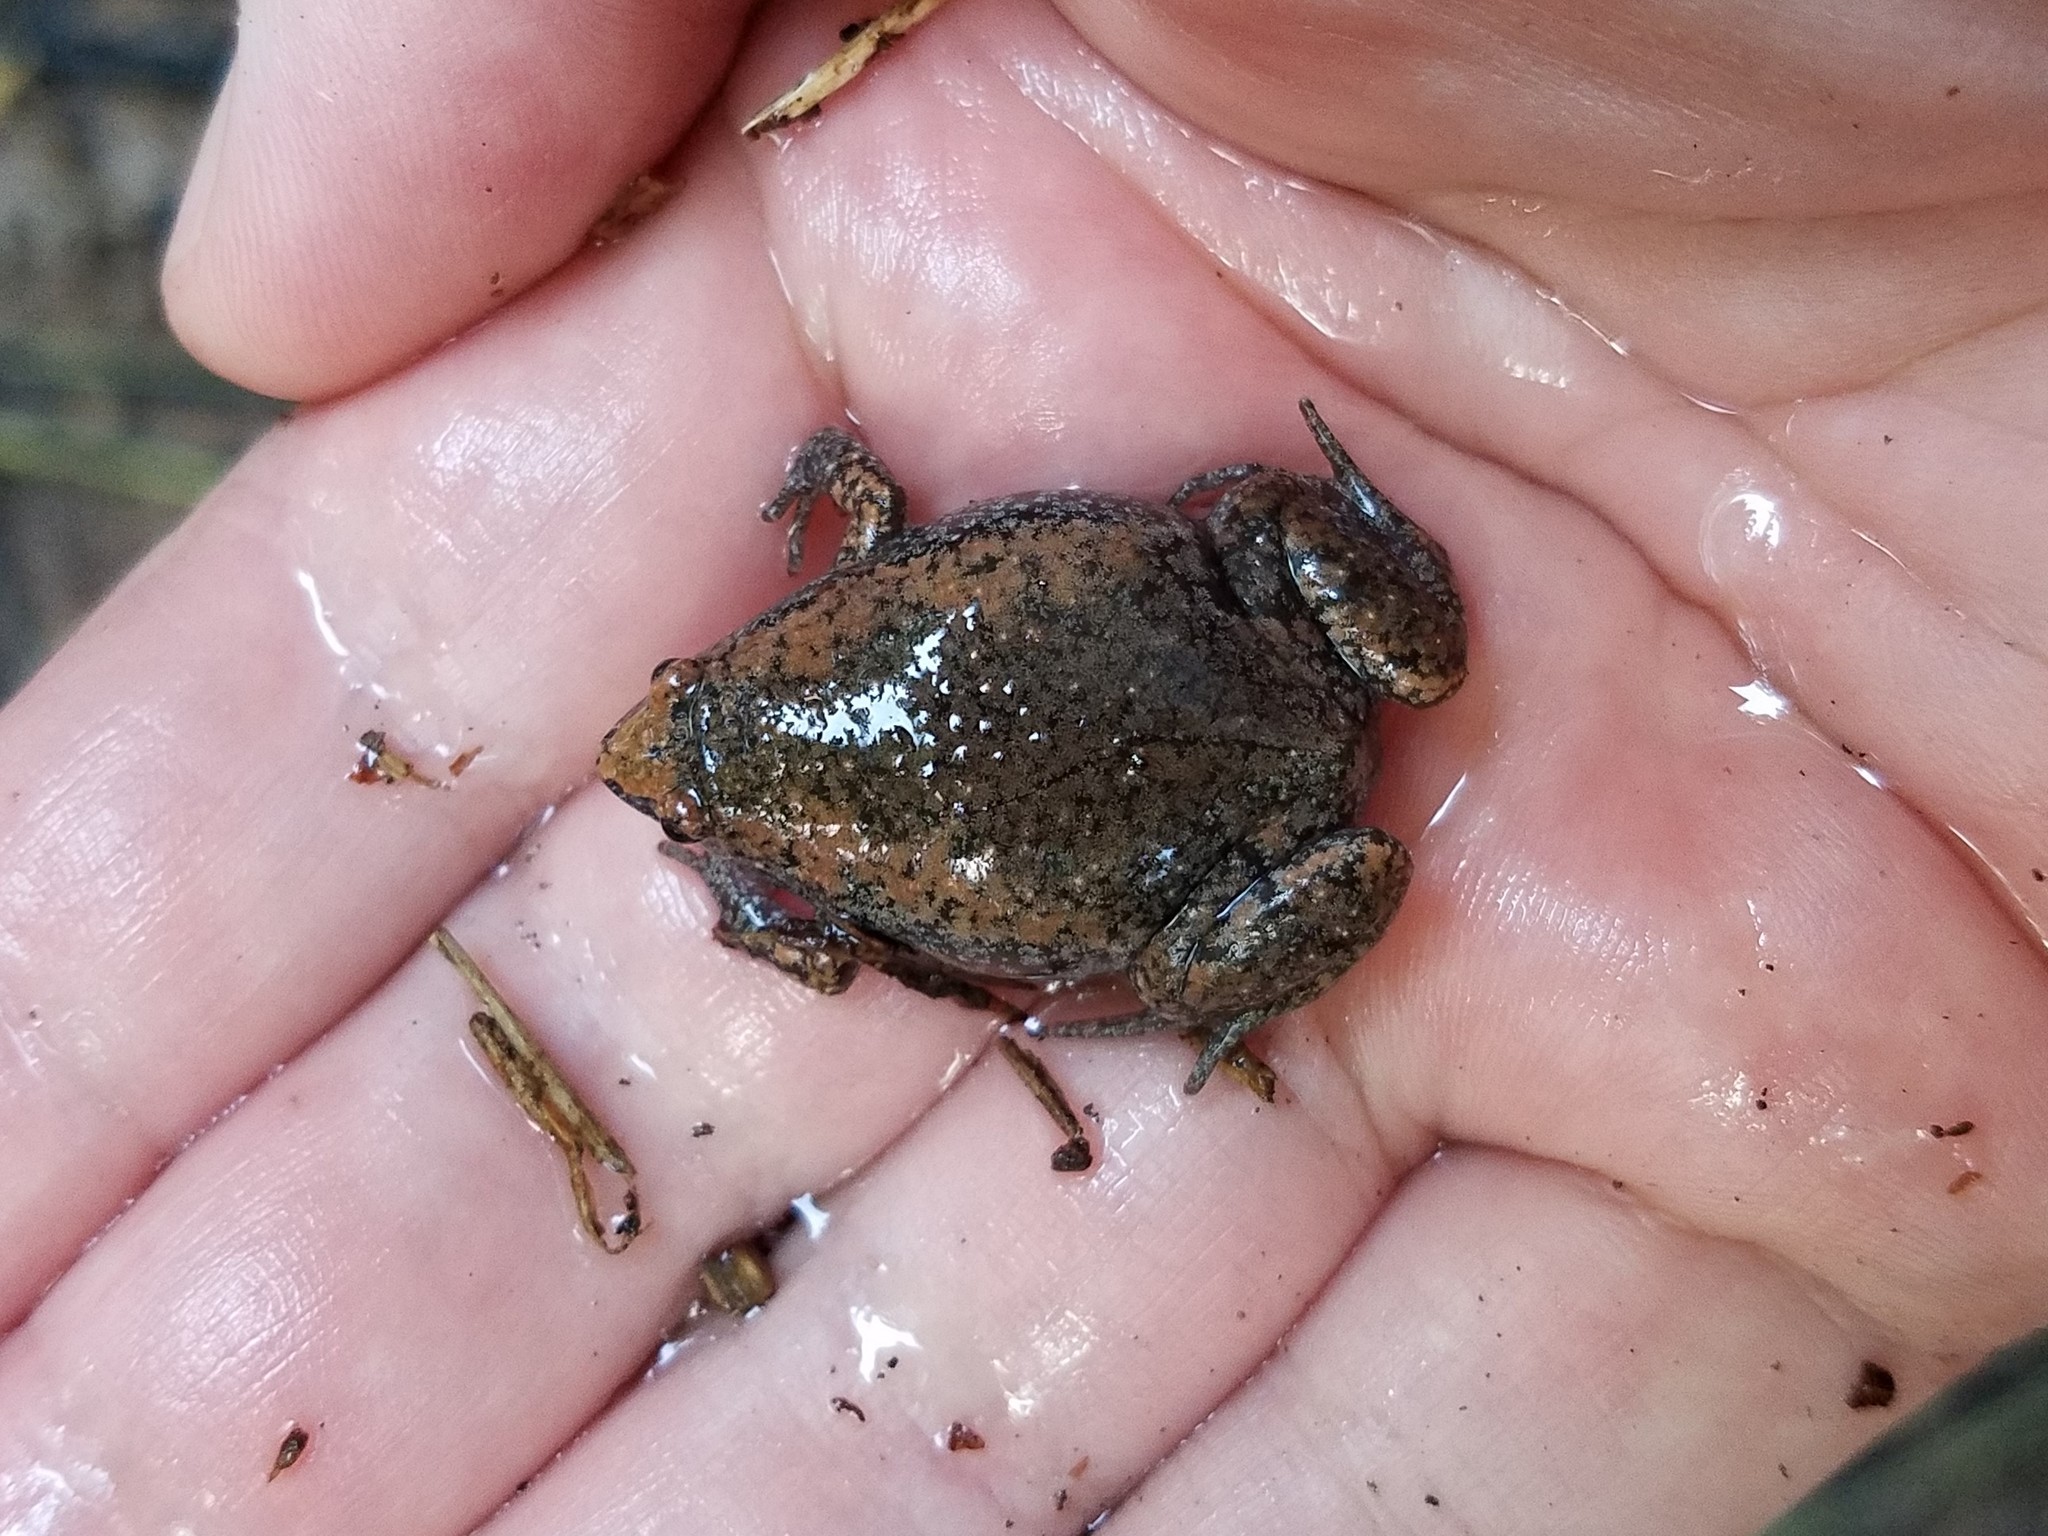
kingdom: Animalia
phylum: Chordata
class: Amphibia
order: Anura
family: Microhylidae
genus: Gastrophryne
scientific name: Gastrophryne carolinensis
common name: Eastern narrowmouth toad
